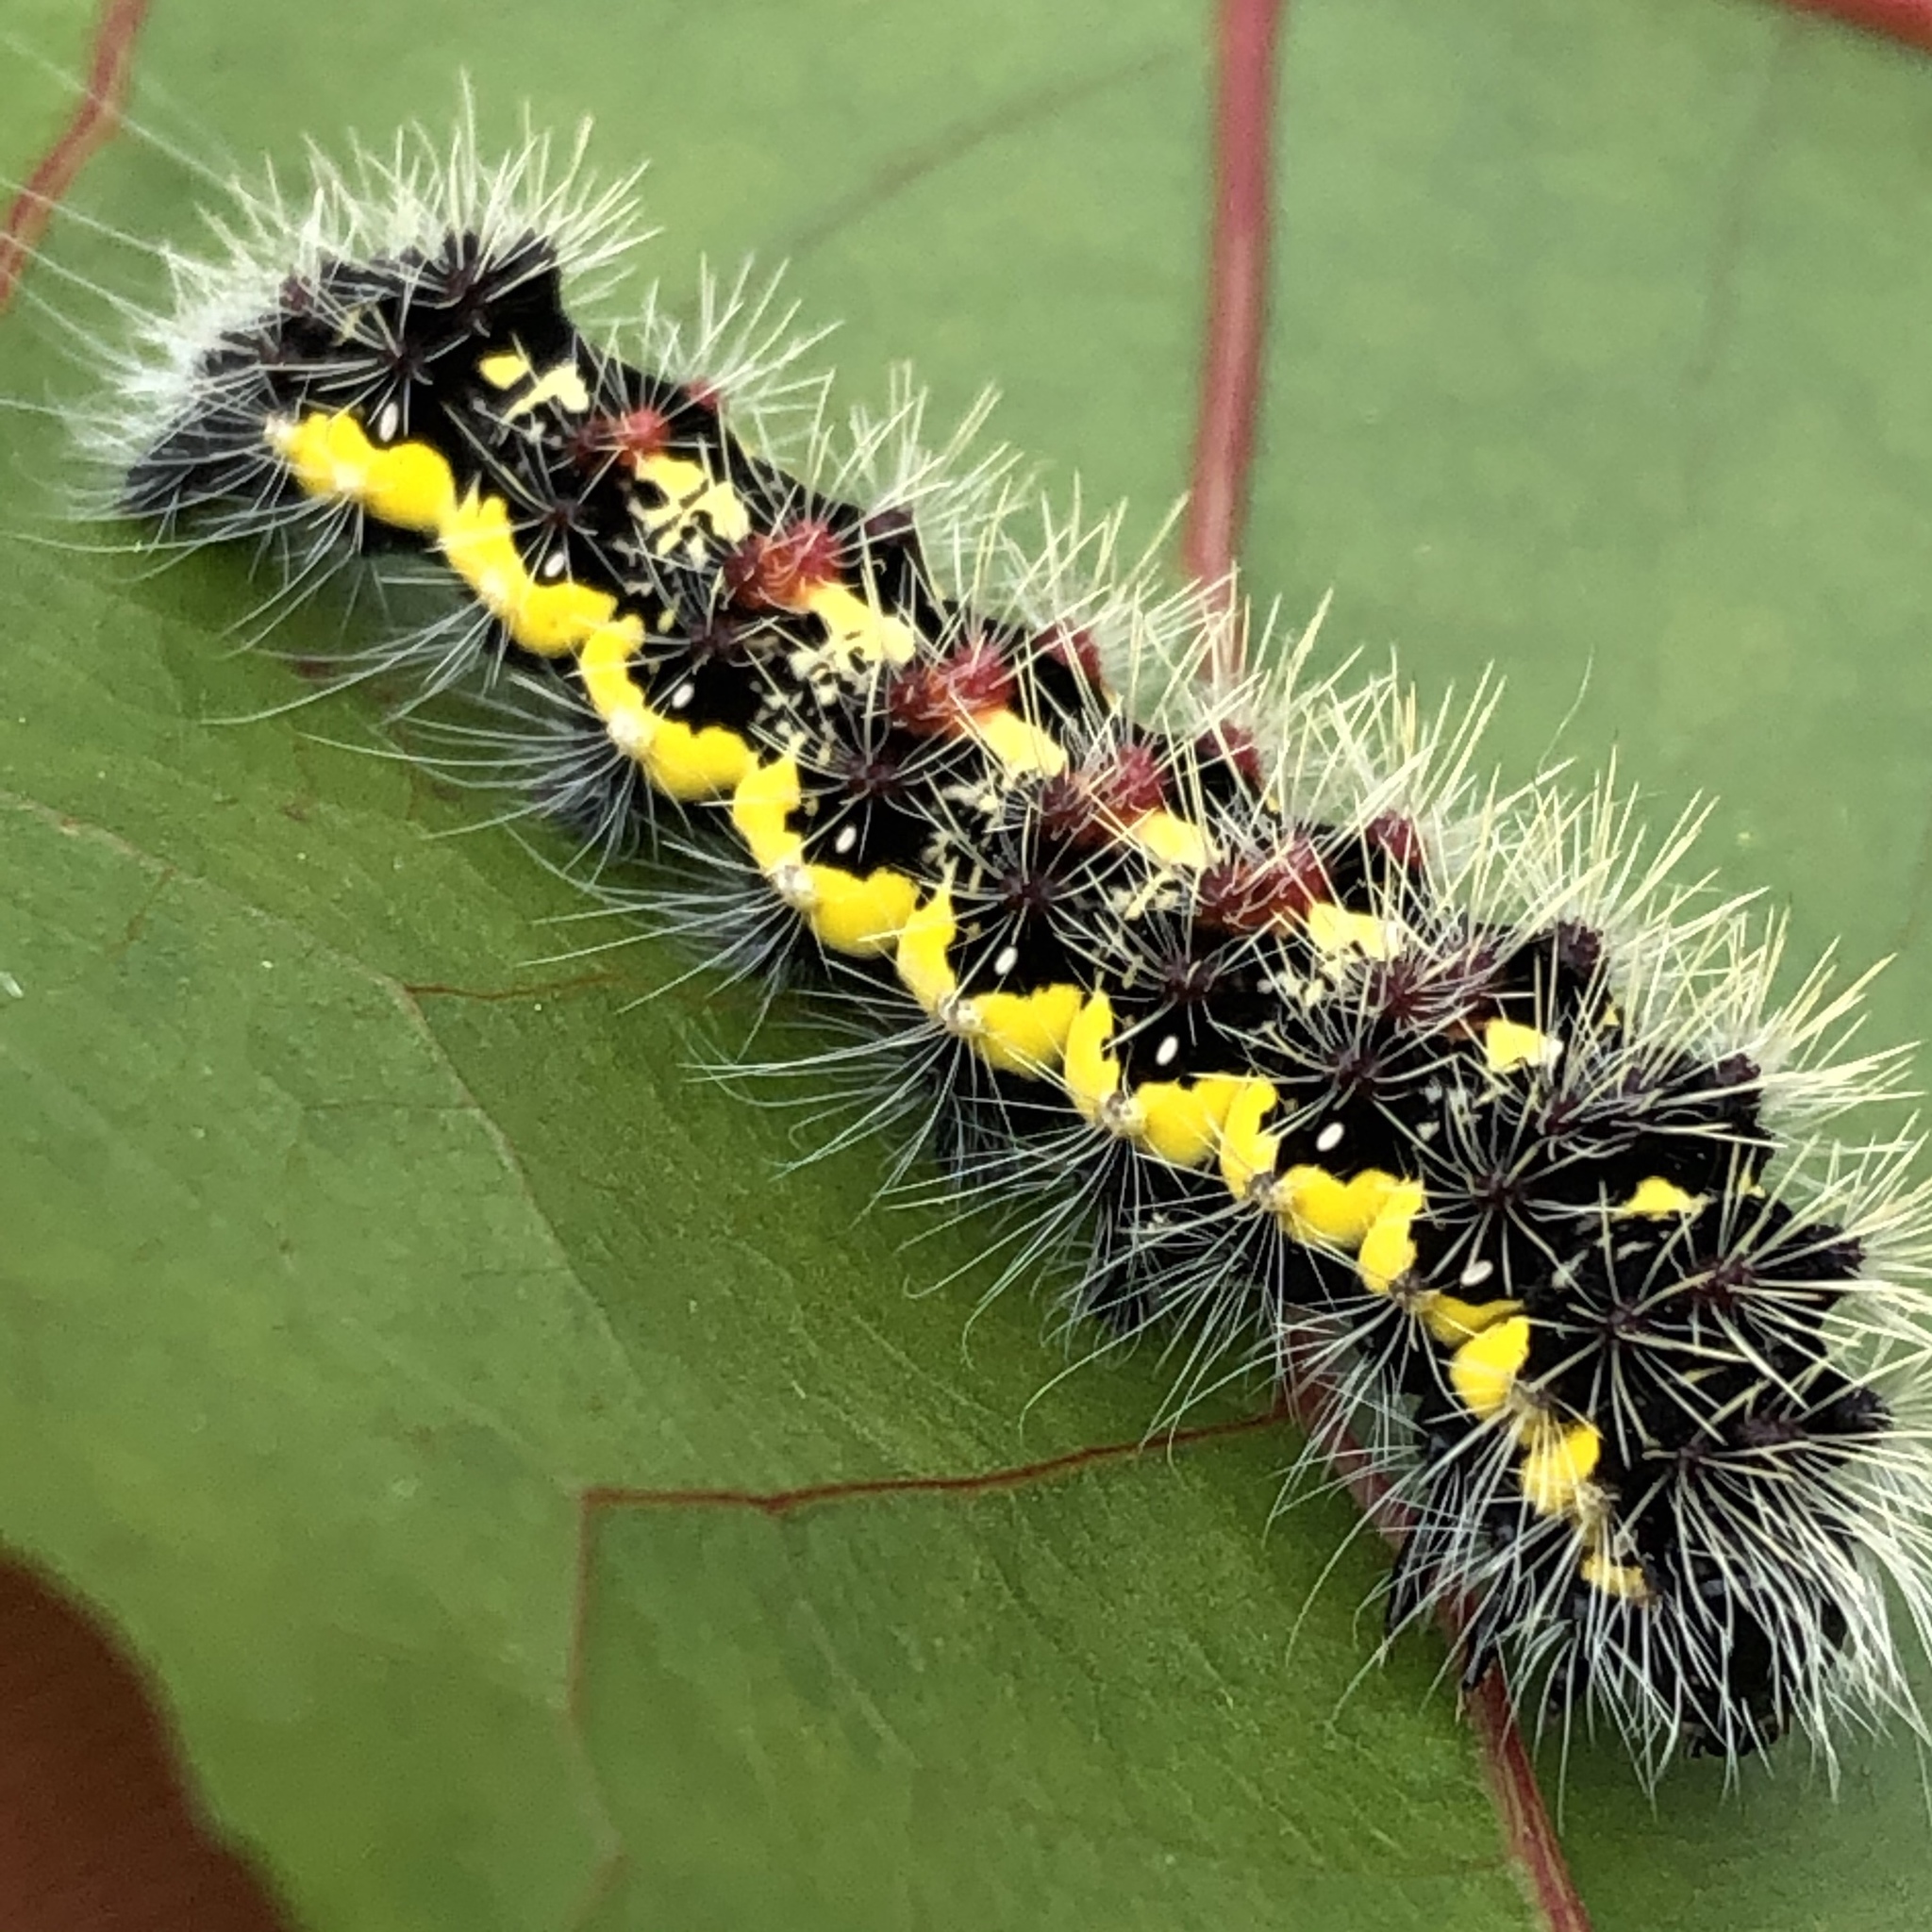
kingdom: Animalia
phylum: Arthropoda
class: Insecta
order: Lepidoptera
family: Noctuidae
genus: Acronicta
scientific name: Acronicta oblinita
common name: Smeared dagger
